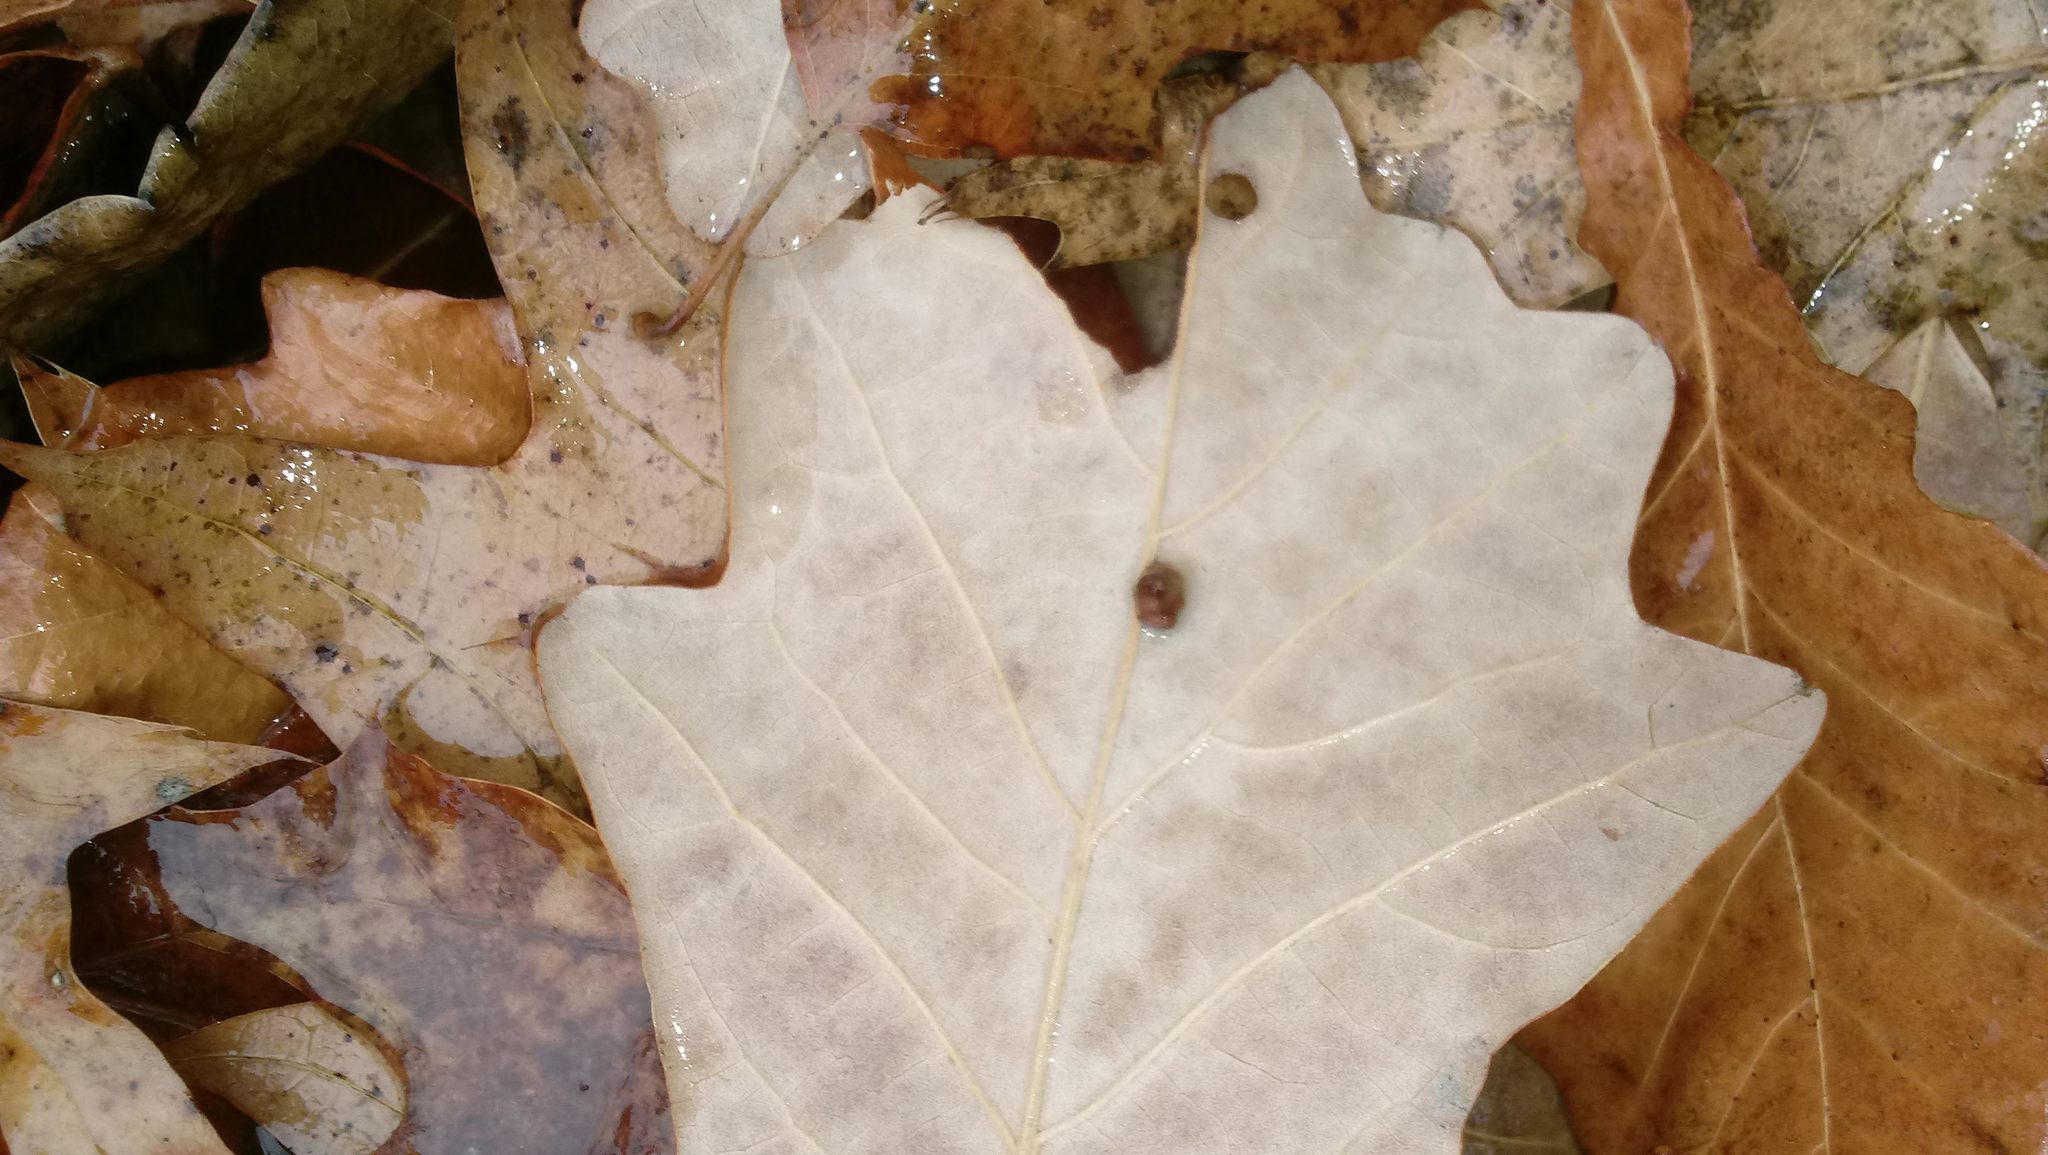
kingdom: Animalia
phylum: Arthropoda
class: Insecta
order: Hymenoptera
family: Cynipidae
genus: Andricus
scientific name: Andricus Druon ignotum
